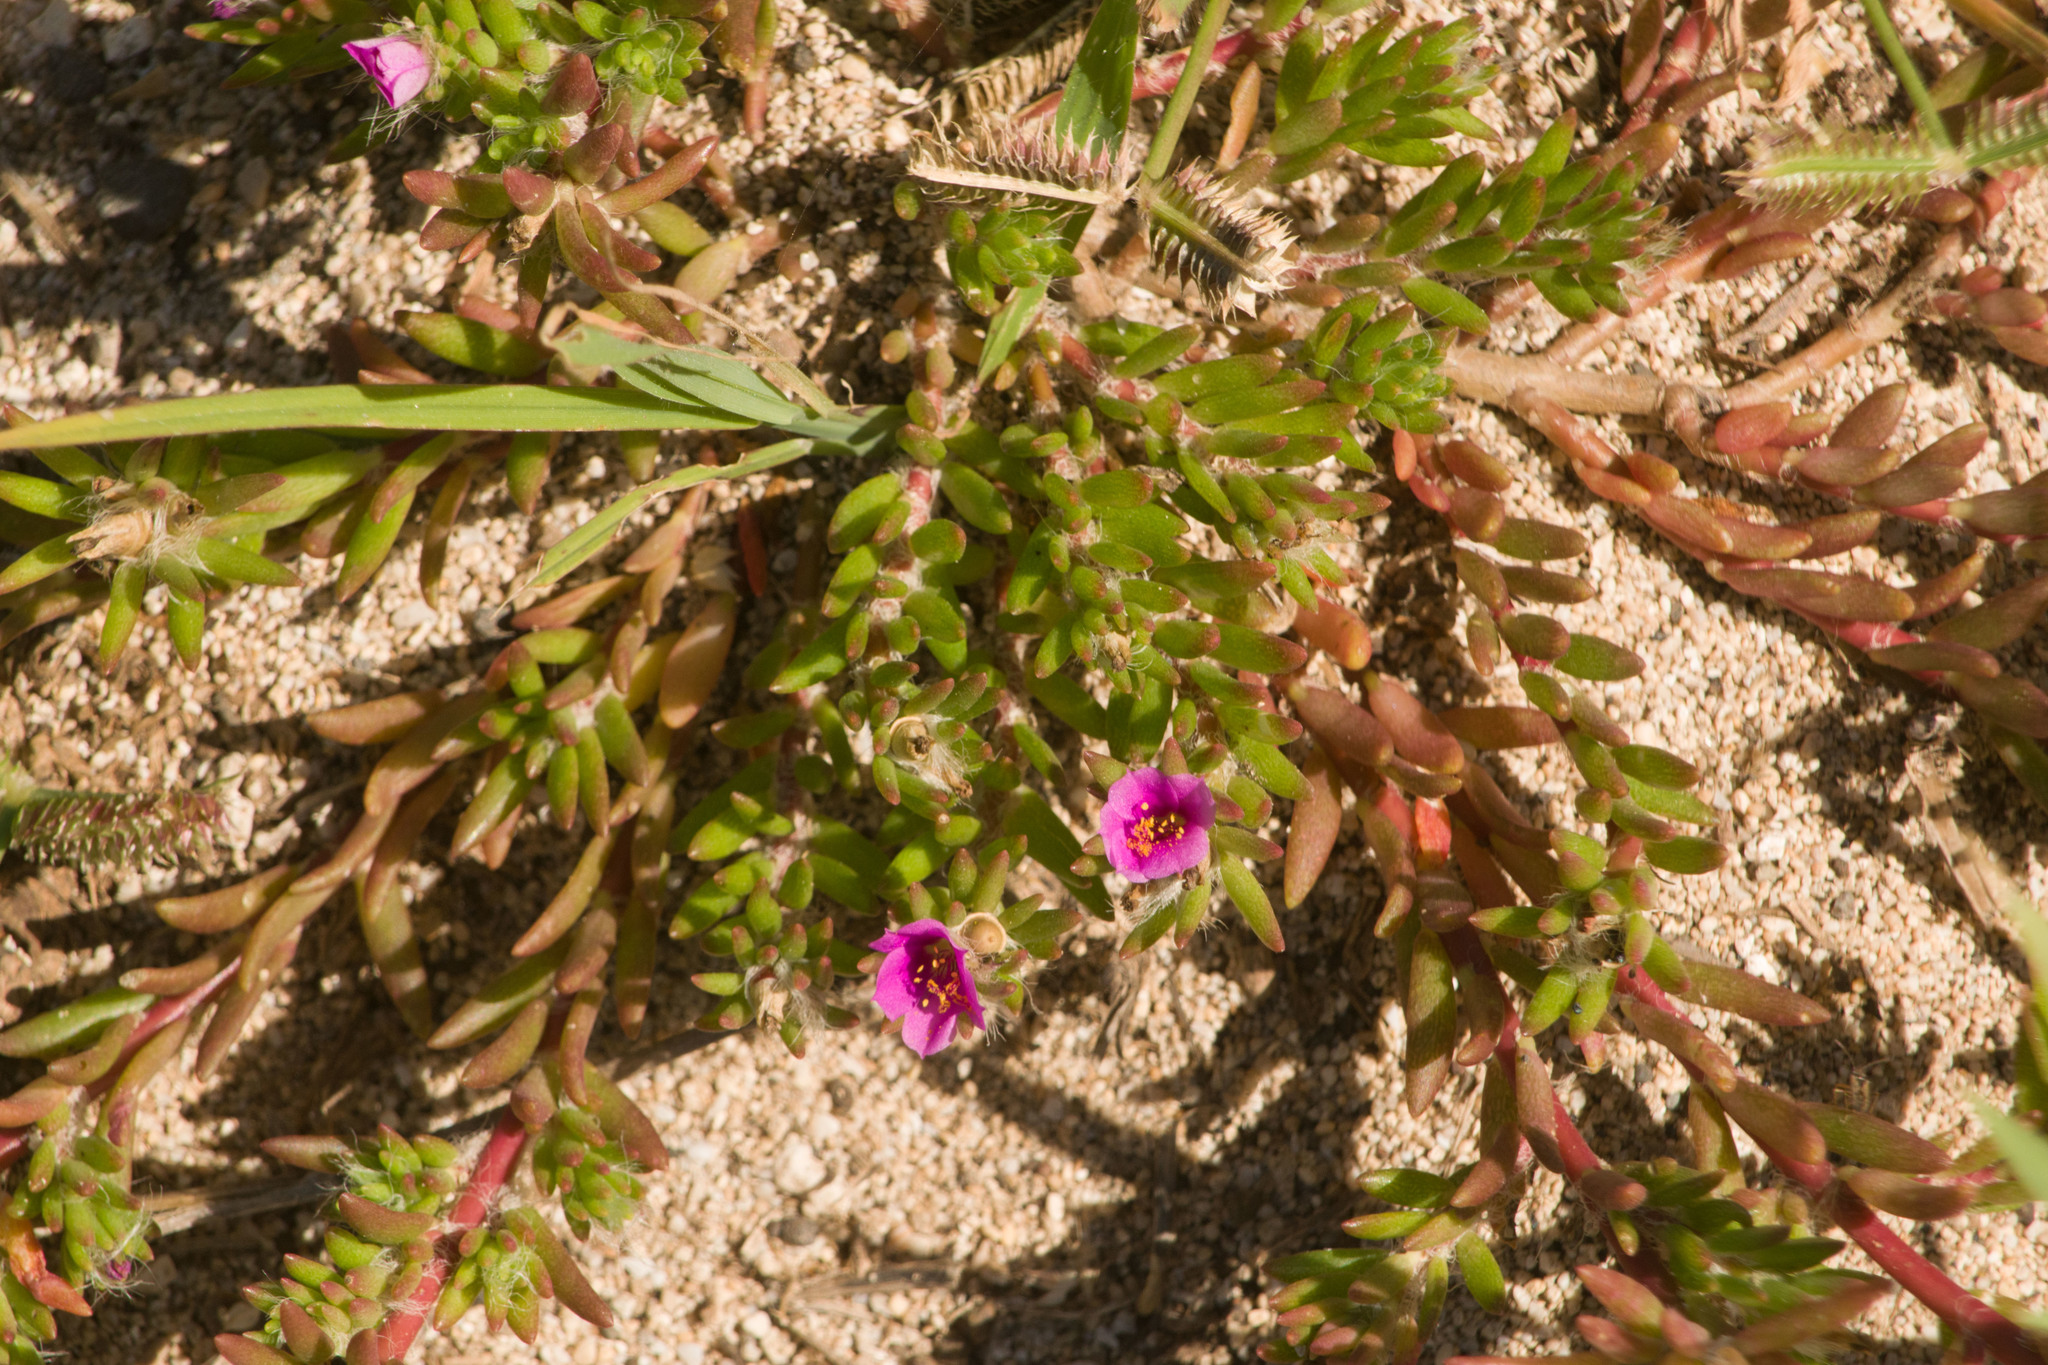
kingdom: Plantae
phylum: Tracheophyta
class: Magnoliopsida
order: Caryophyllales
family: Portulacaceae
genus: Portulaca
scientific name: Portulaca pilosa
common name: Kiss me quick
